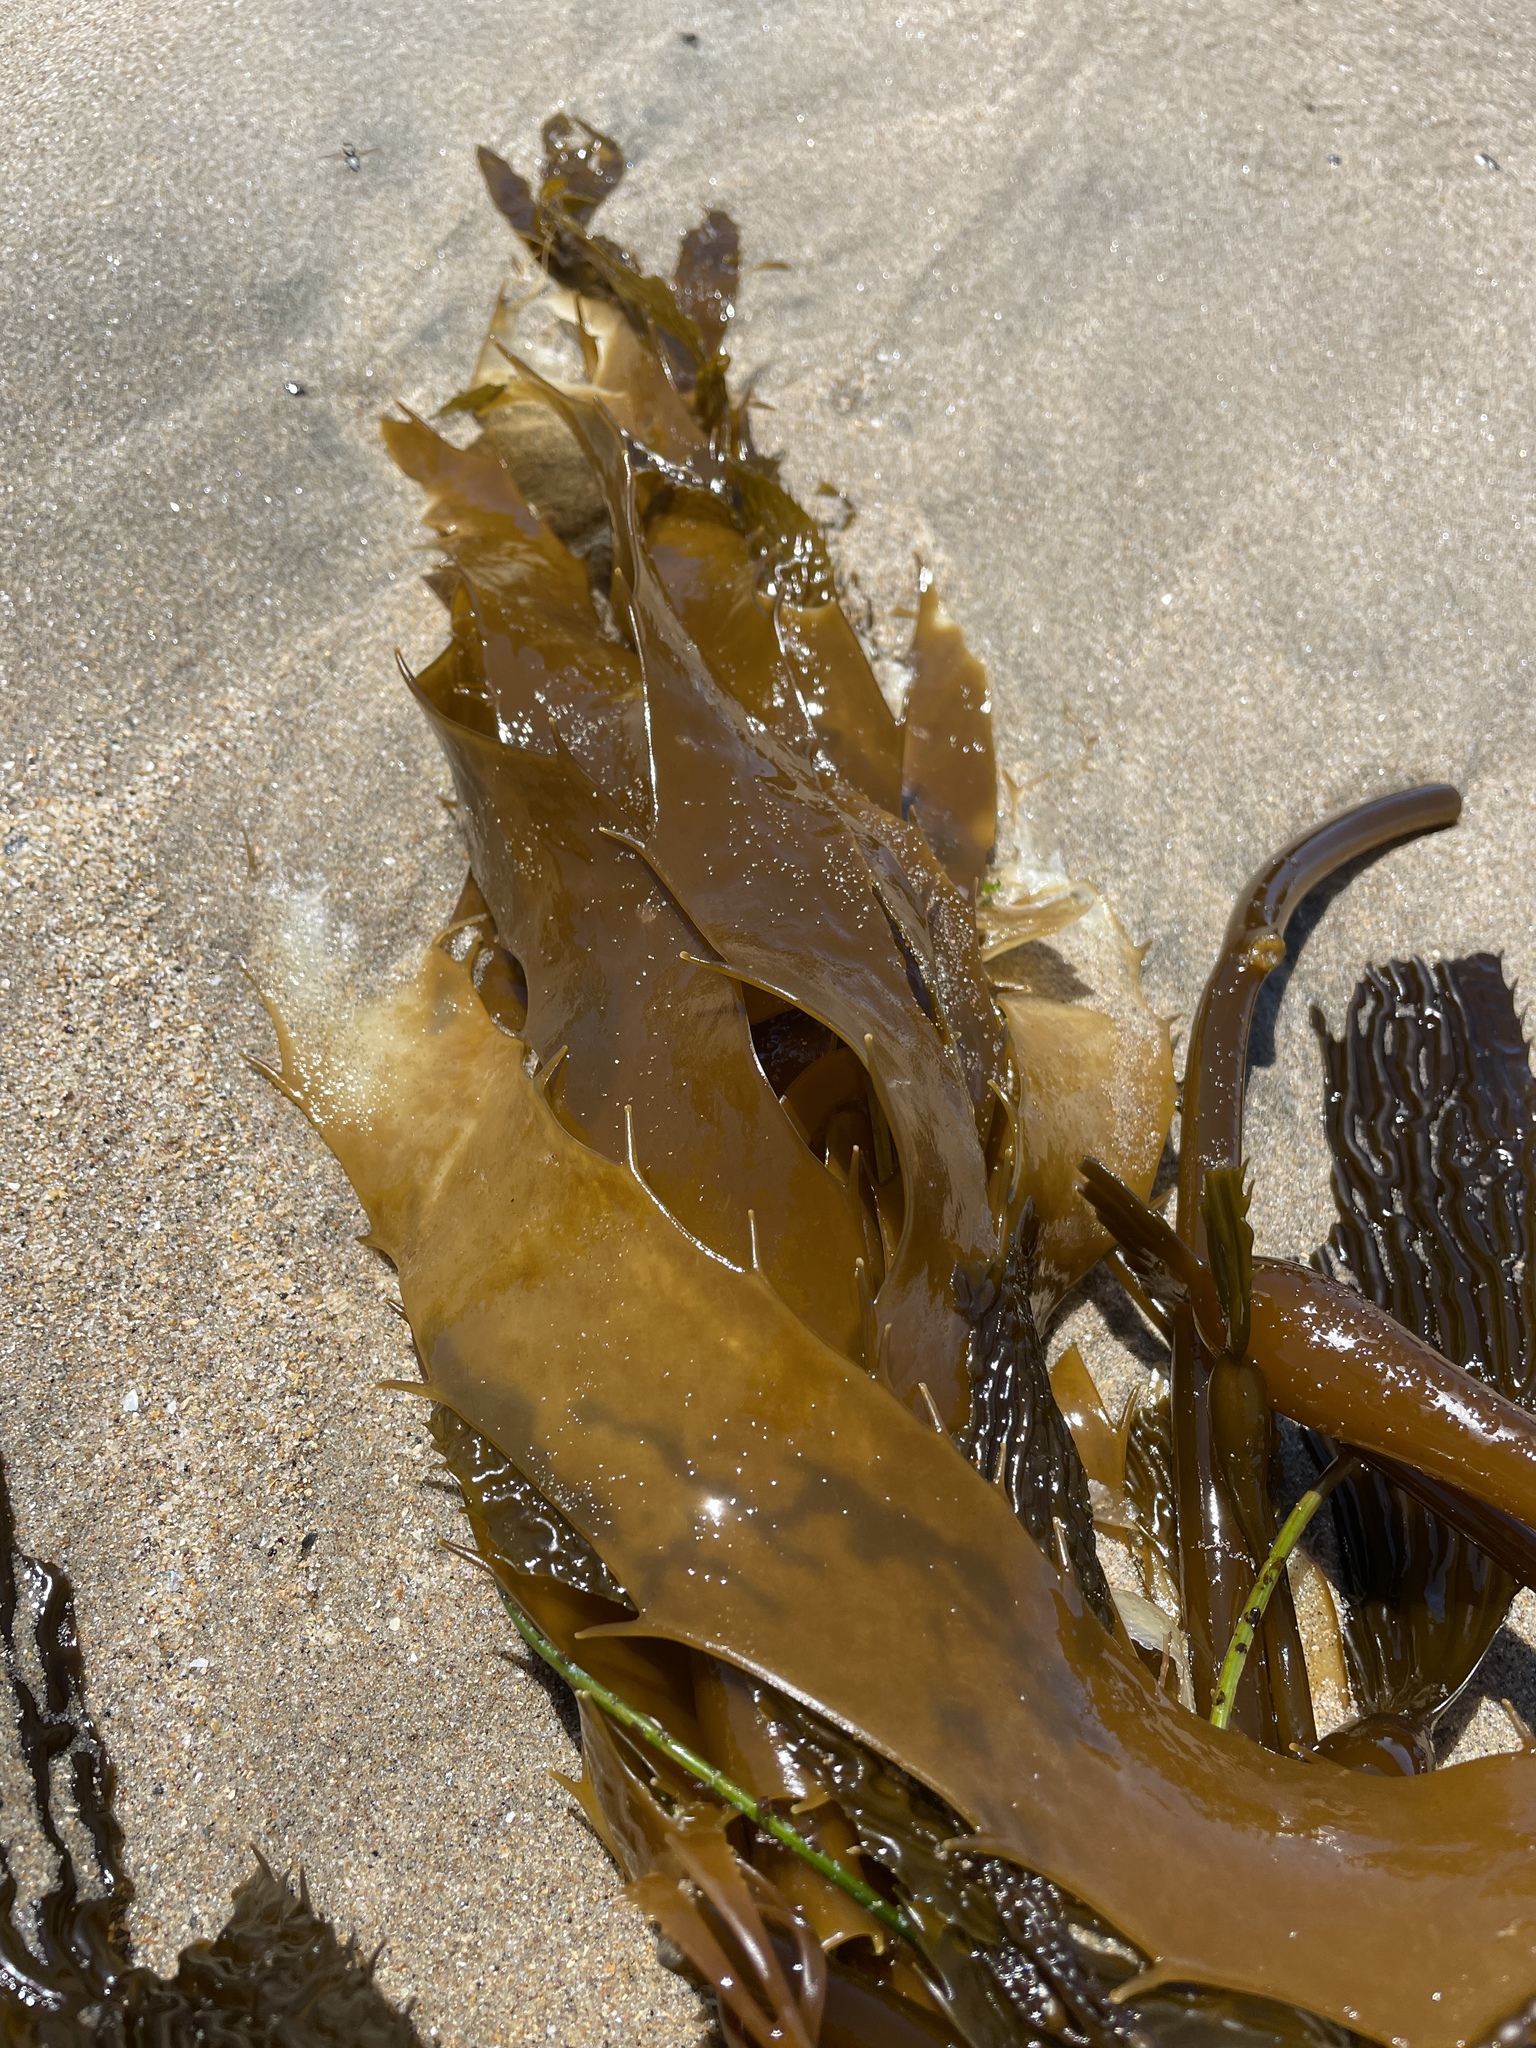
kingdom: Chromista
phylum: Ochrophyta
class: Phaeophyceae
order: Laminariales
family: Laminariaceae
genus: Macrocystis
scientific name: Macrocystis pyrifera
